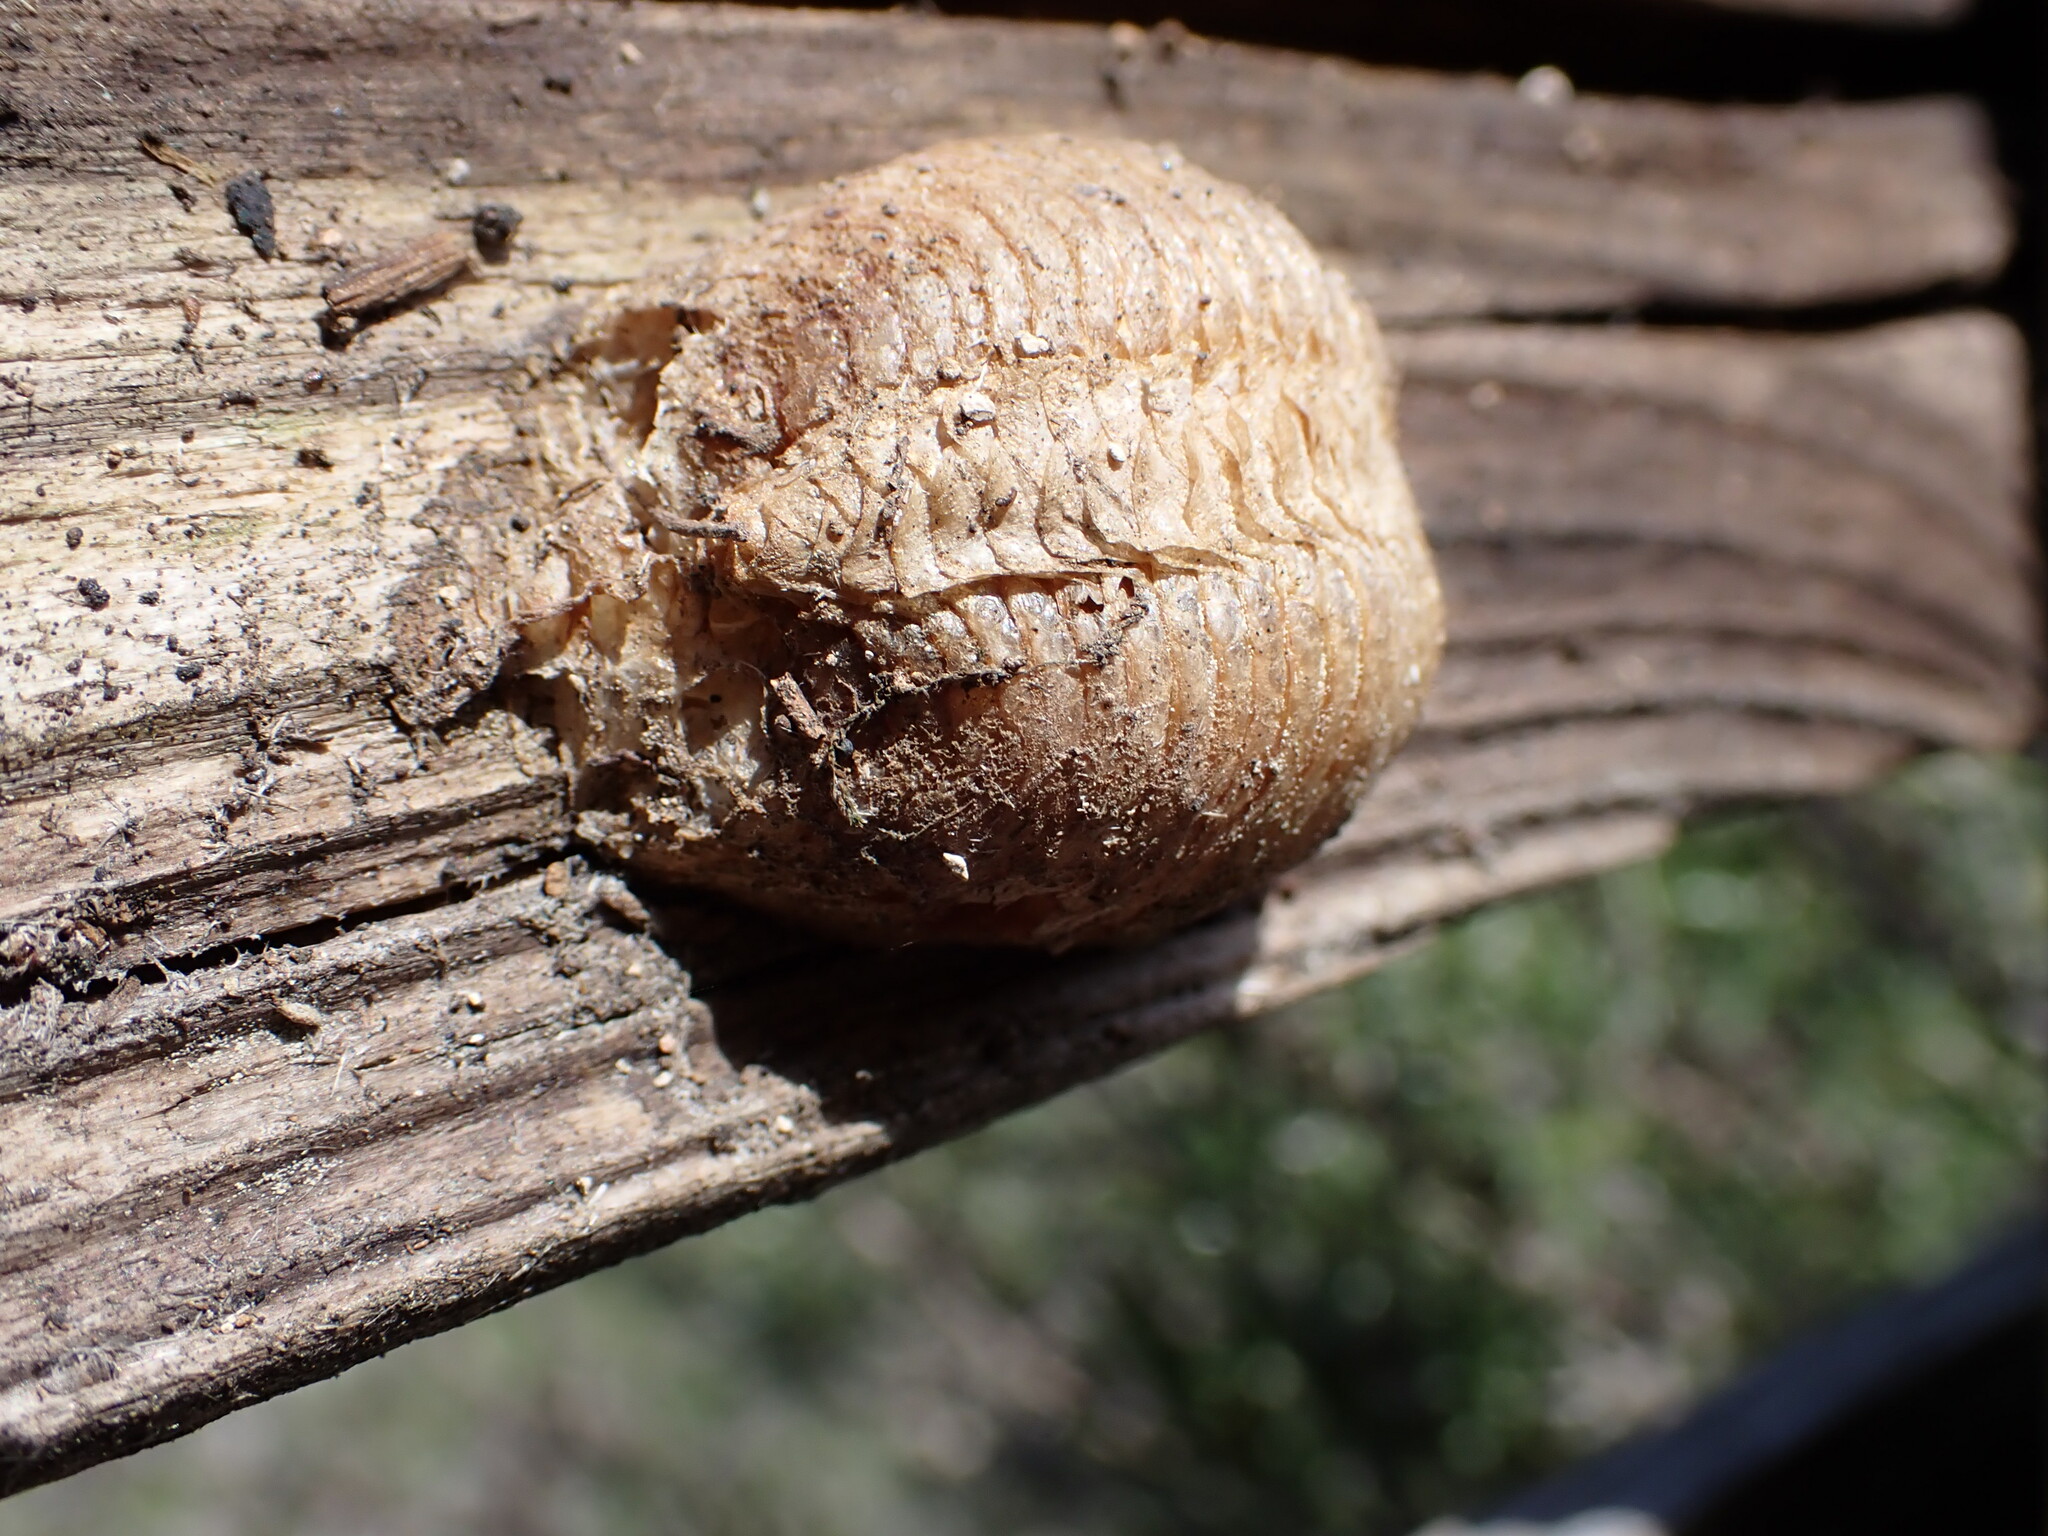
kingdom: Animalia
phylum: Arthropoda
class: Insecta
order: Mantodea
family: Mantidae
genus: Mantis
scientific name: Mantis religiosa
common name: Praying mantis
